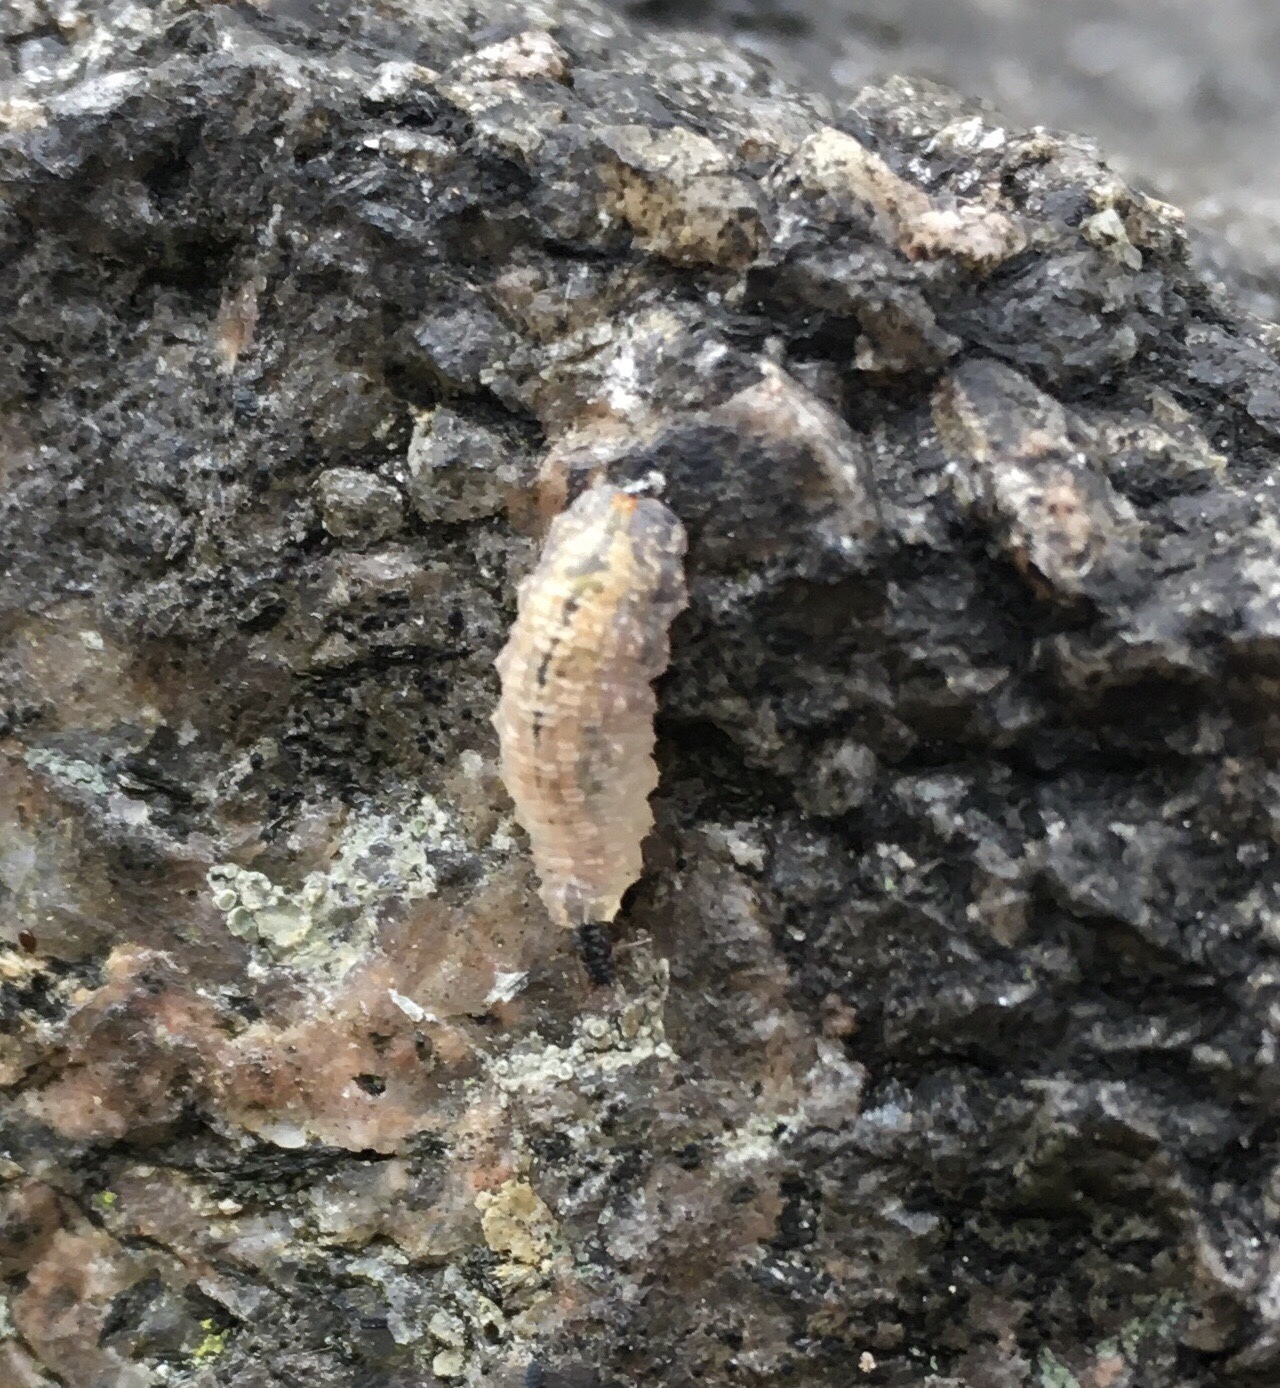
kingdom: Animalia
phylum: Arthropoda
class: Insecta
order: Diptera
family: Syrphidae
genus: Syrphus
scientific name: Syrphus
